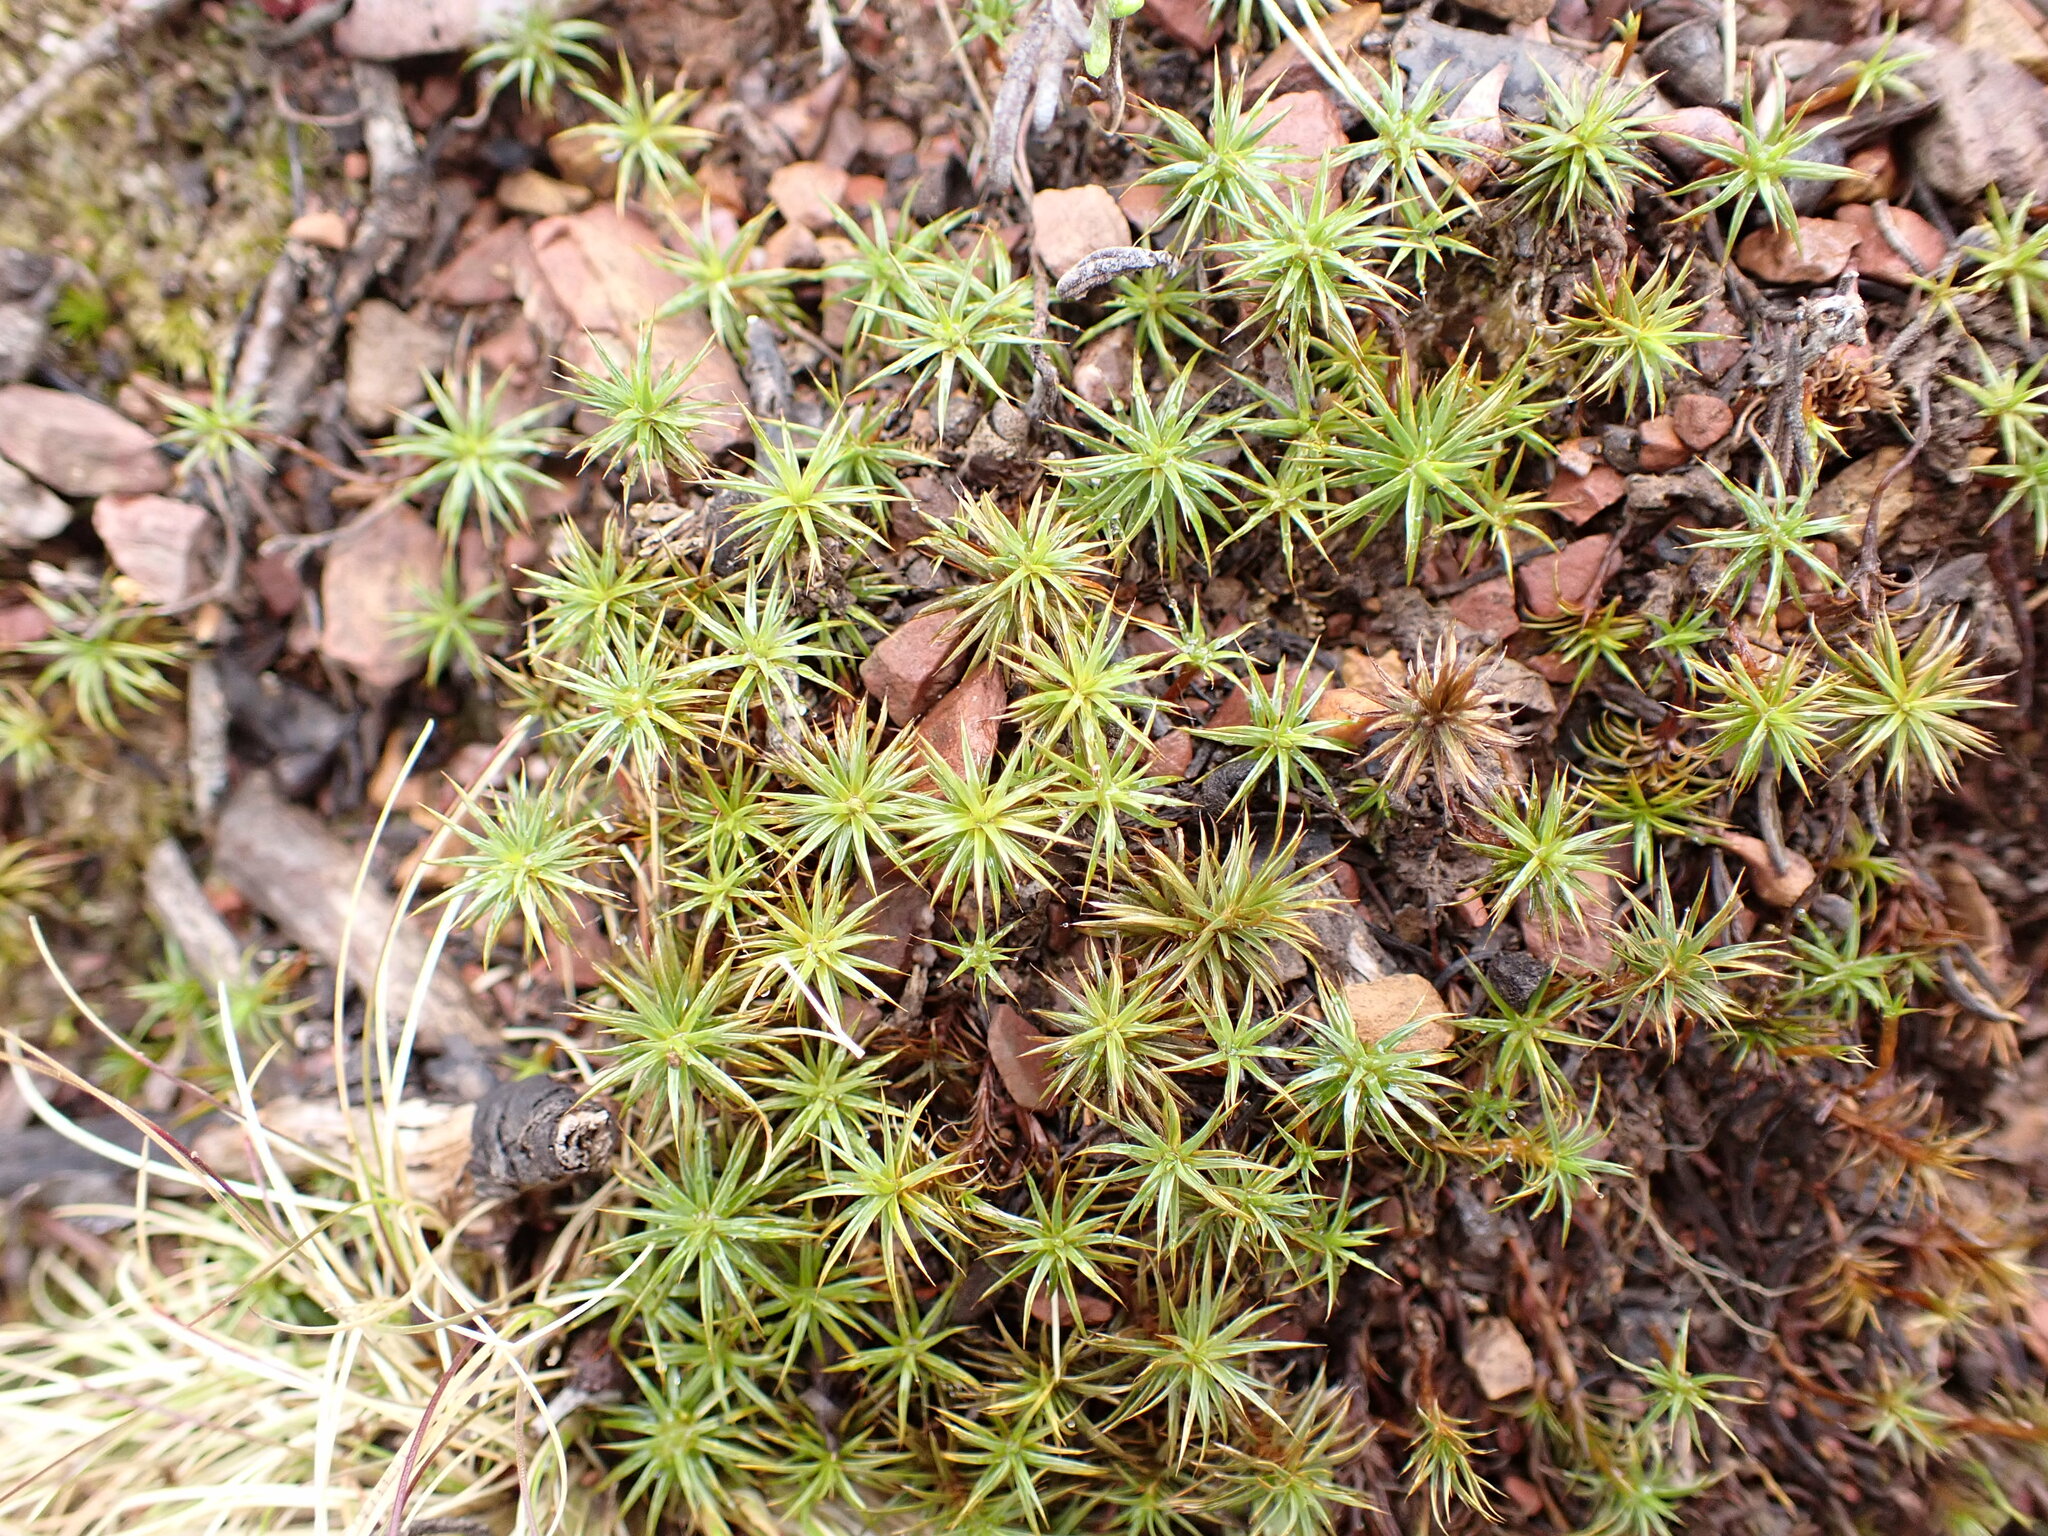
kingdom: Plantae
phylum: Bryophyta
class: Polytrichopsida
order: Polytrichales
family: Polytrichaceae
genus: Polytrichum
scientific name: Polytrichum juniperinum
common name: Juniper haircap moss
